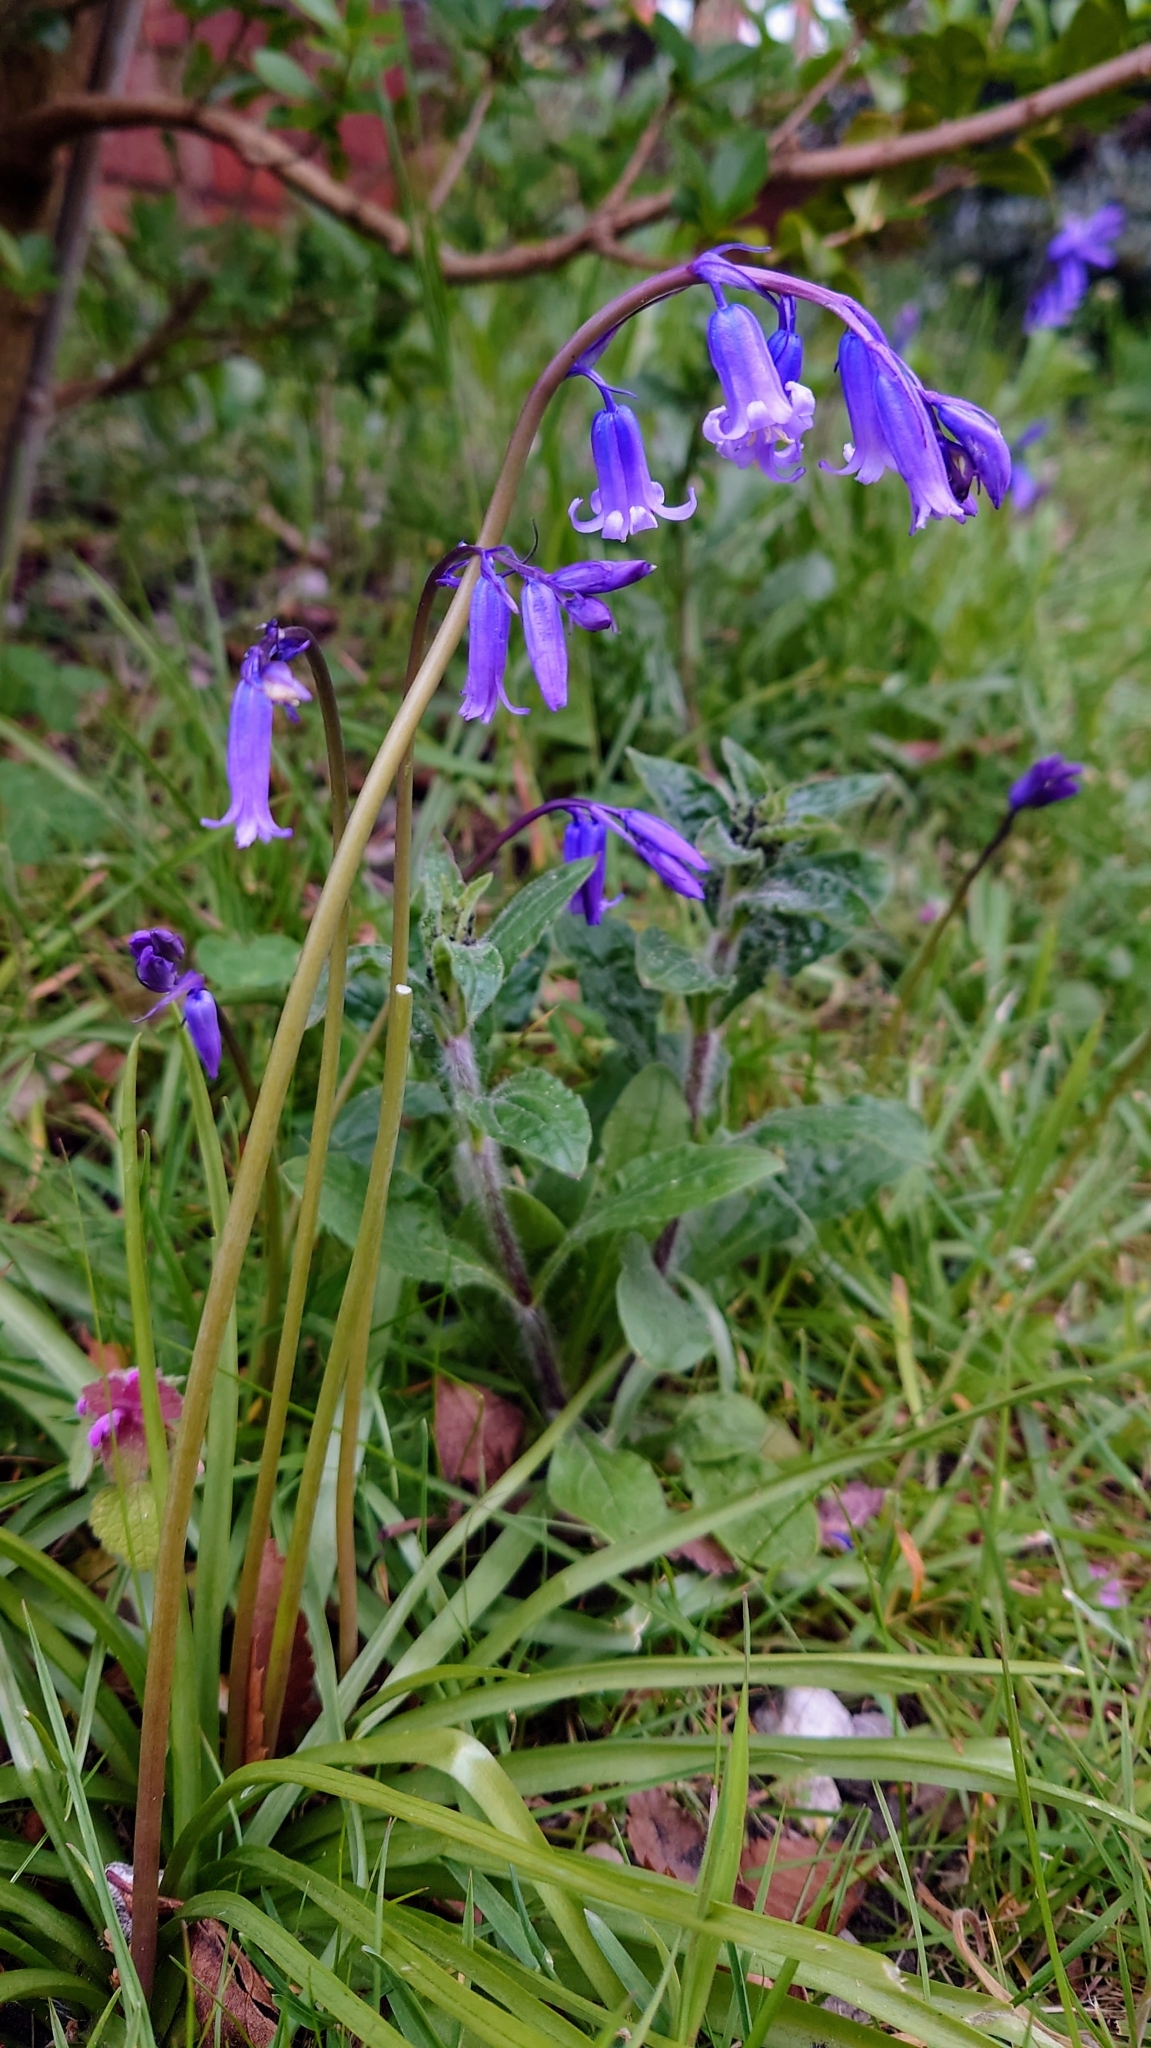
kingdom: Plantae
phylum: Tracheophyta
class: Liliopsida
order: Asparagales
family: Asparagaceae
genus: Hyacinthoides
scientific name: Hyacinthoides non-scripta
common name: Bluebell
